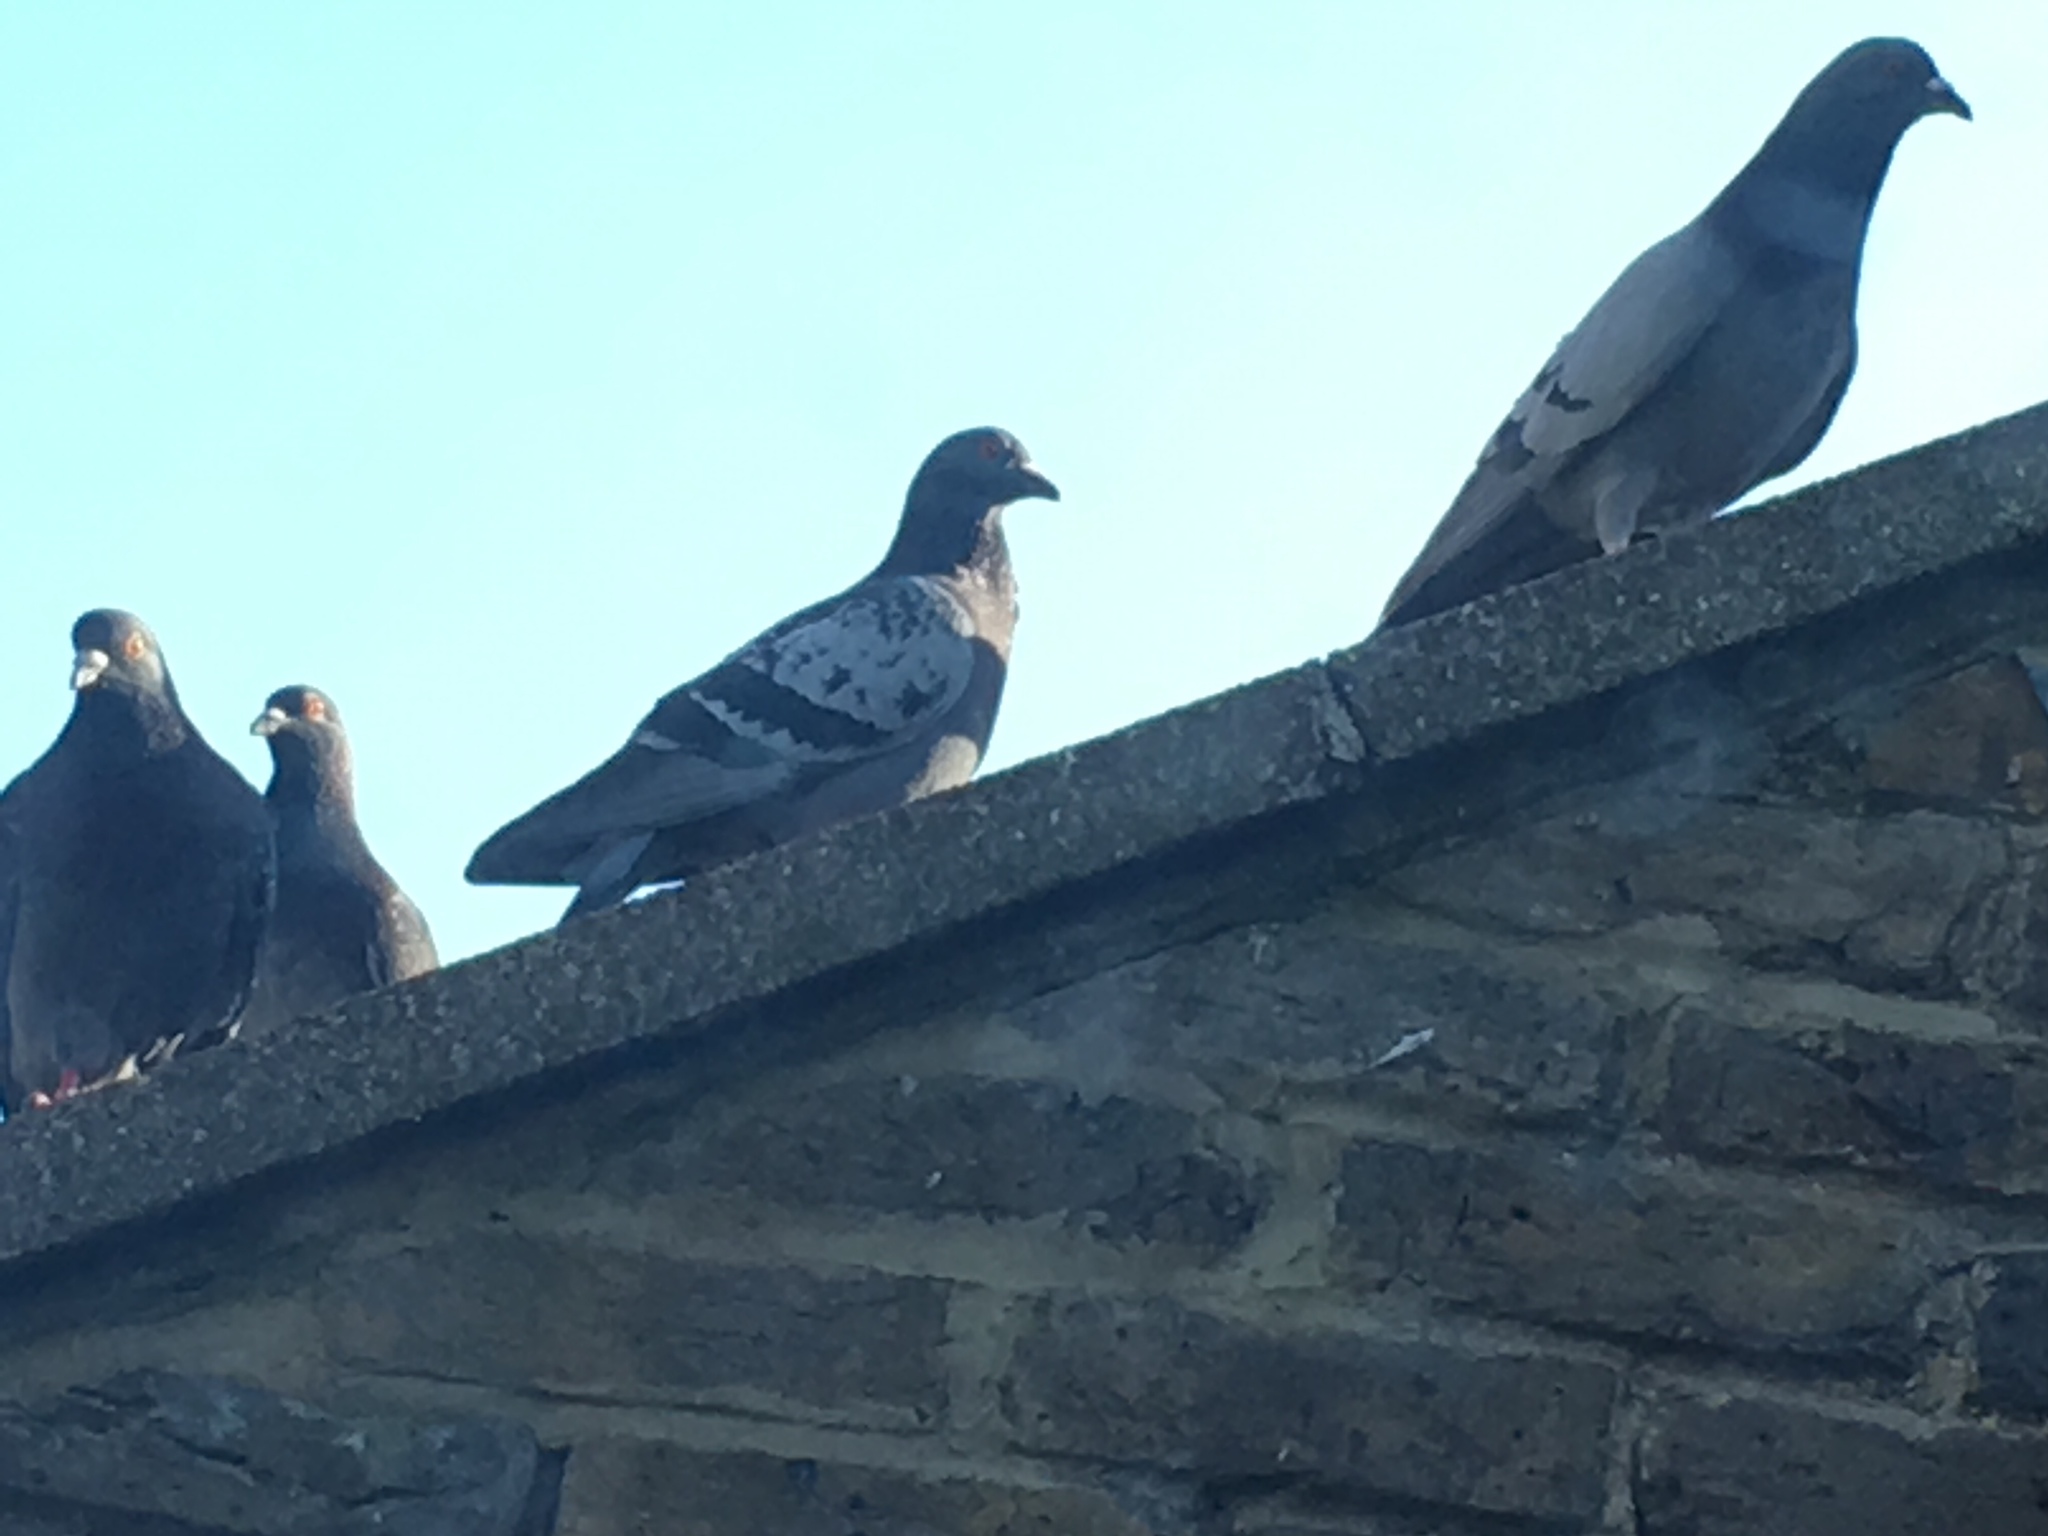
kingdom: Animalia
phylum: Chordata
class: Aves
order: Columbiformes
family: Columbidae
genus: Columba
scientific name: Columba livia
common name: Rock pigeon
